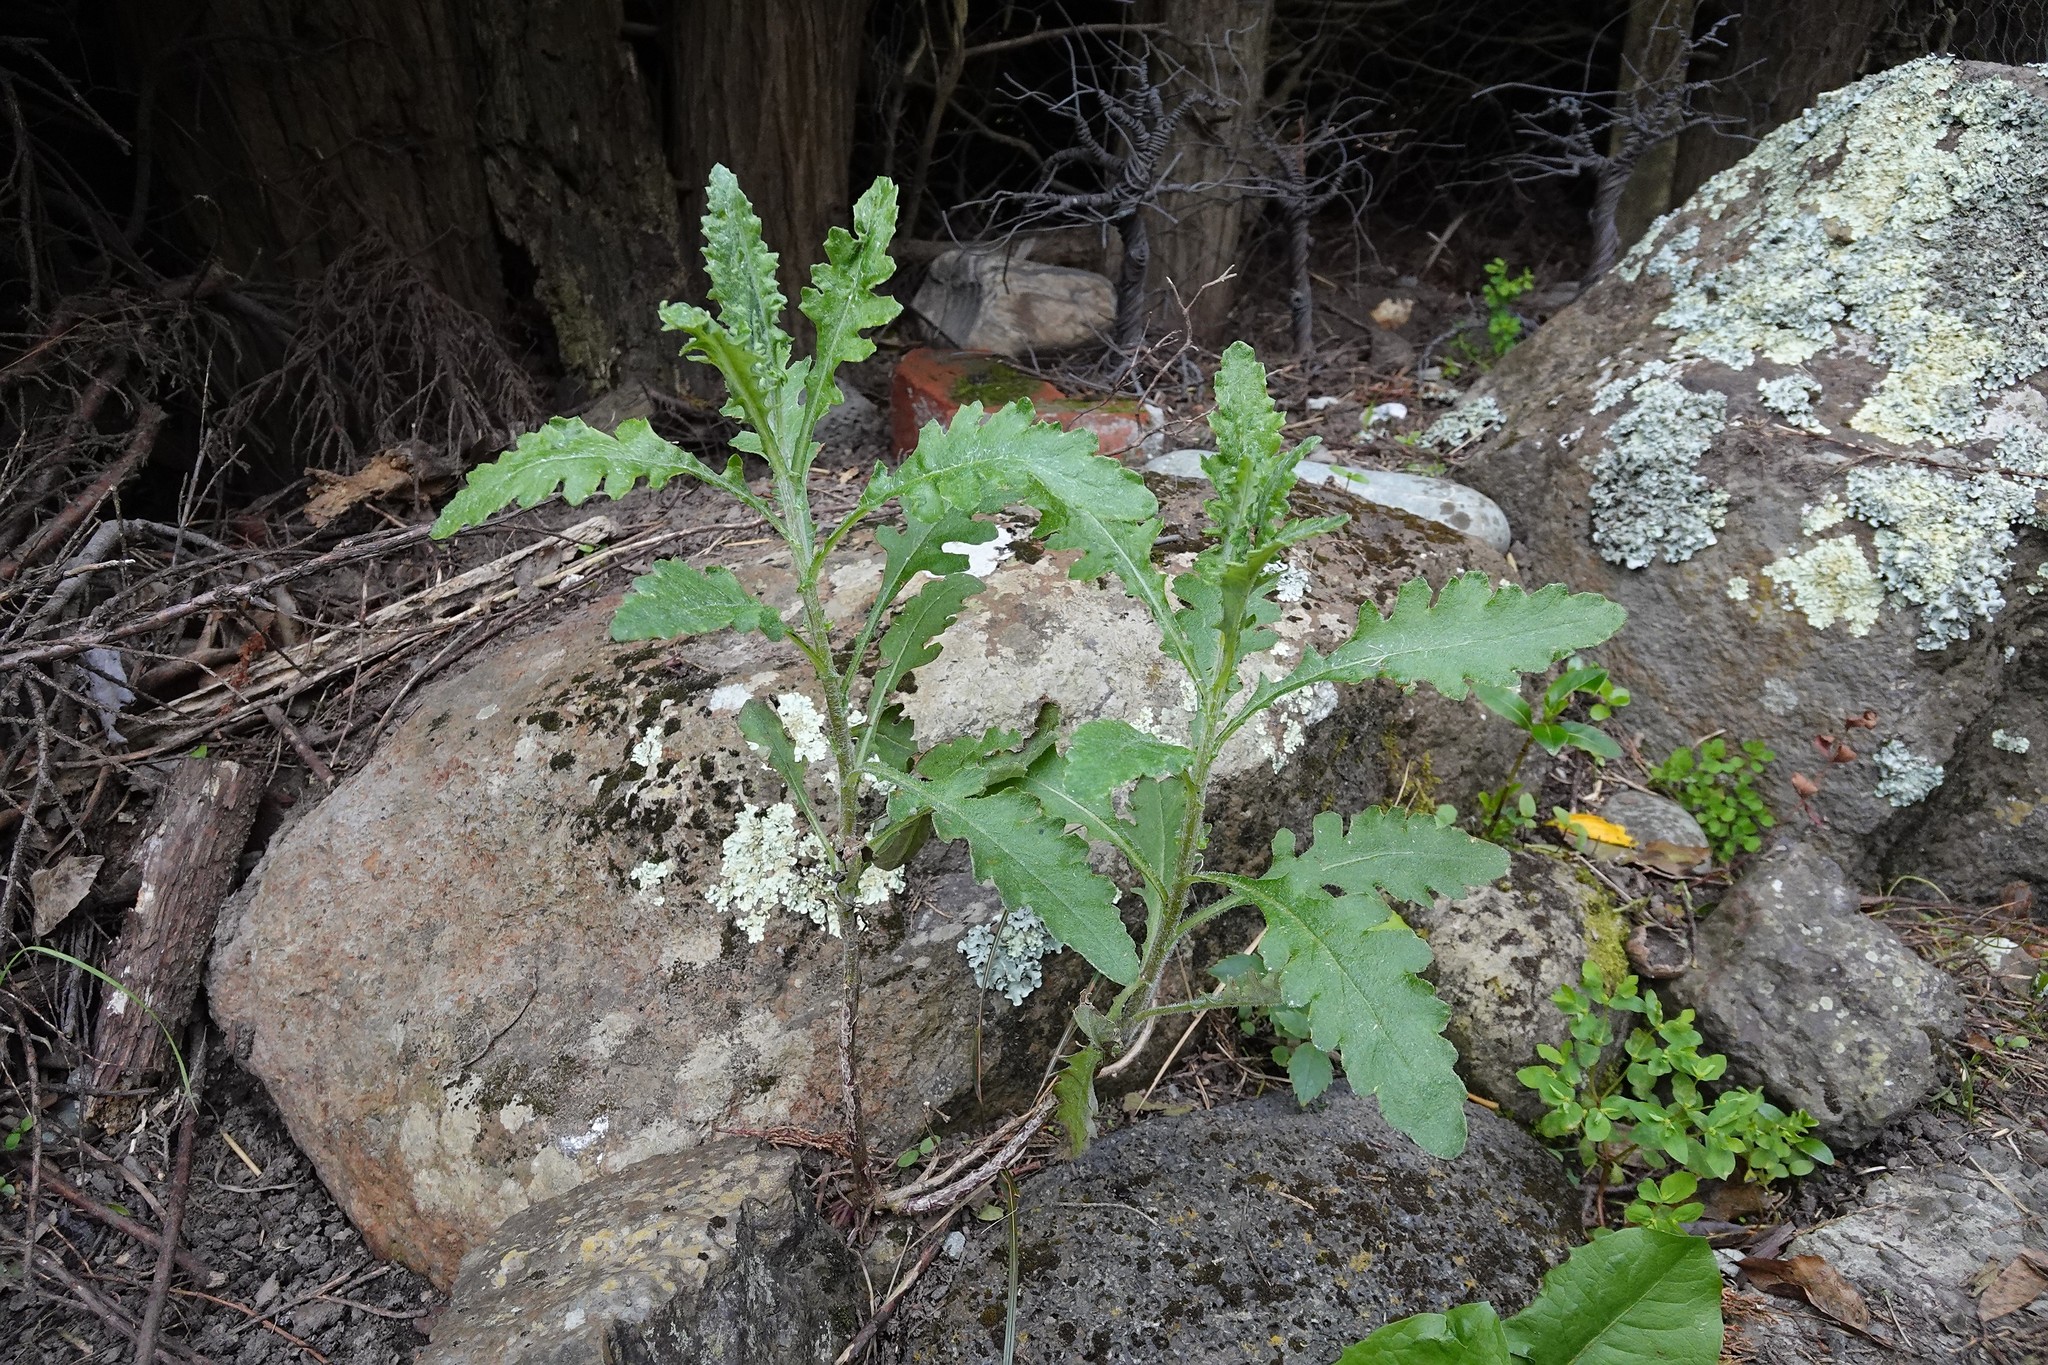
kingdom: Plantae
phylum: Tracheophyta
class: Magnoliopsida
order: Asterales
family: Asteraceae
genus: Senecio
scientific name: Senecio glomeratus
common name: Cutleaf burnweed
